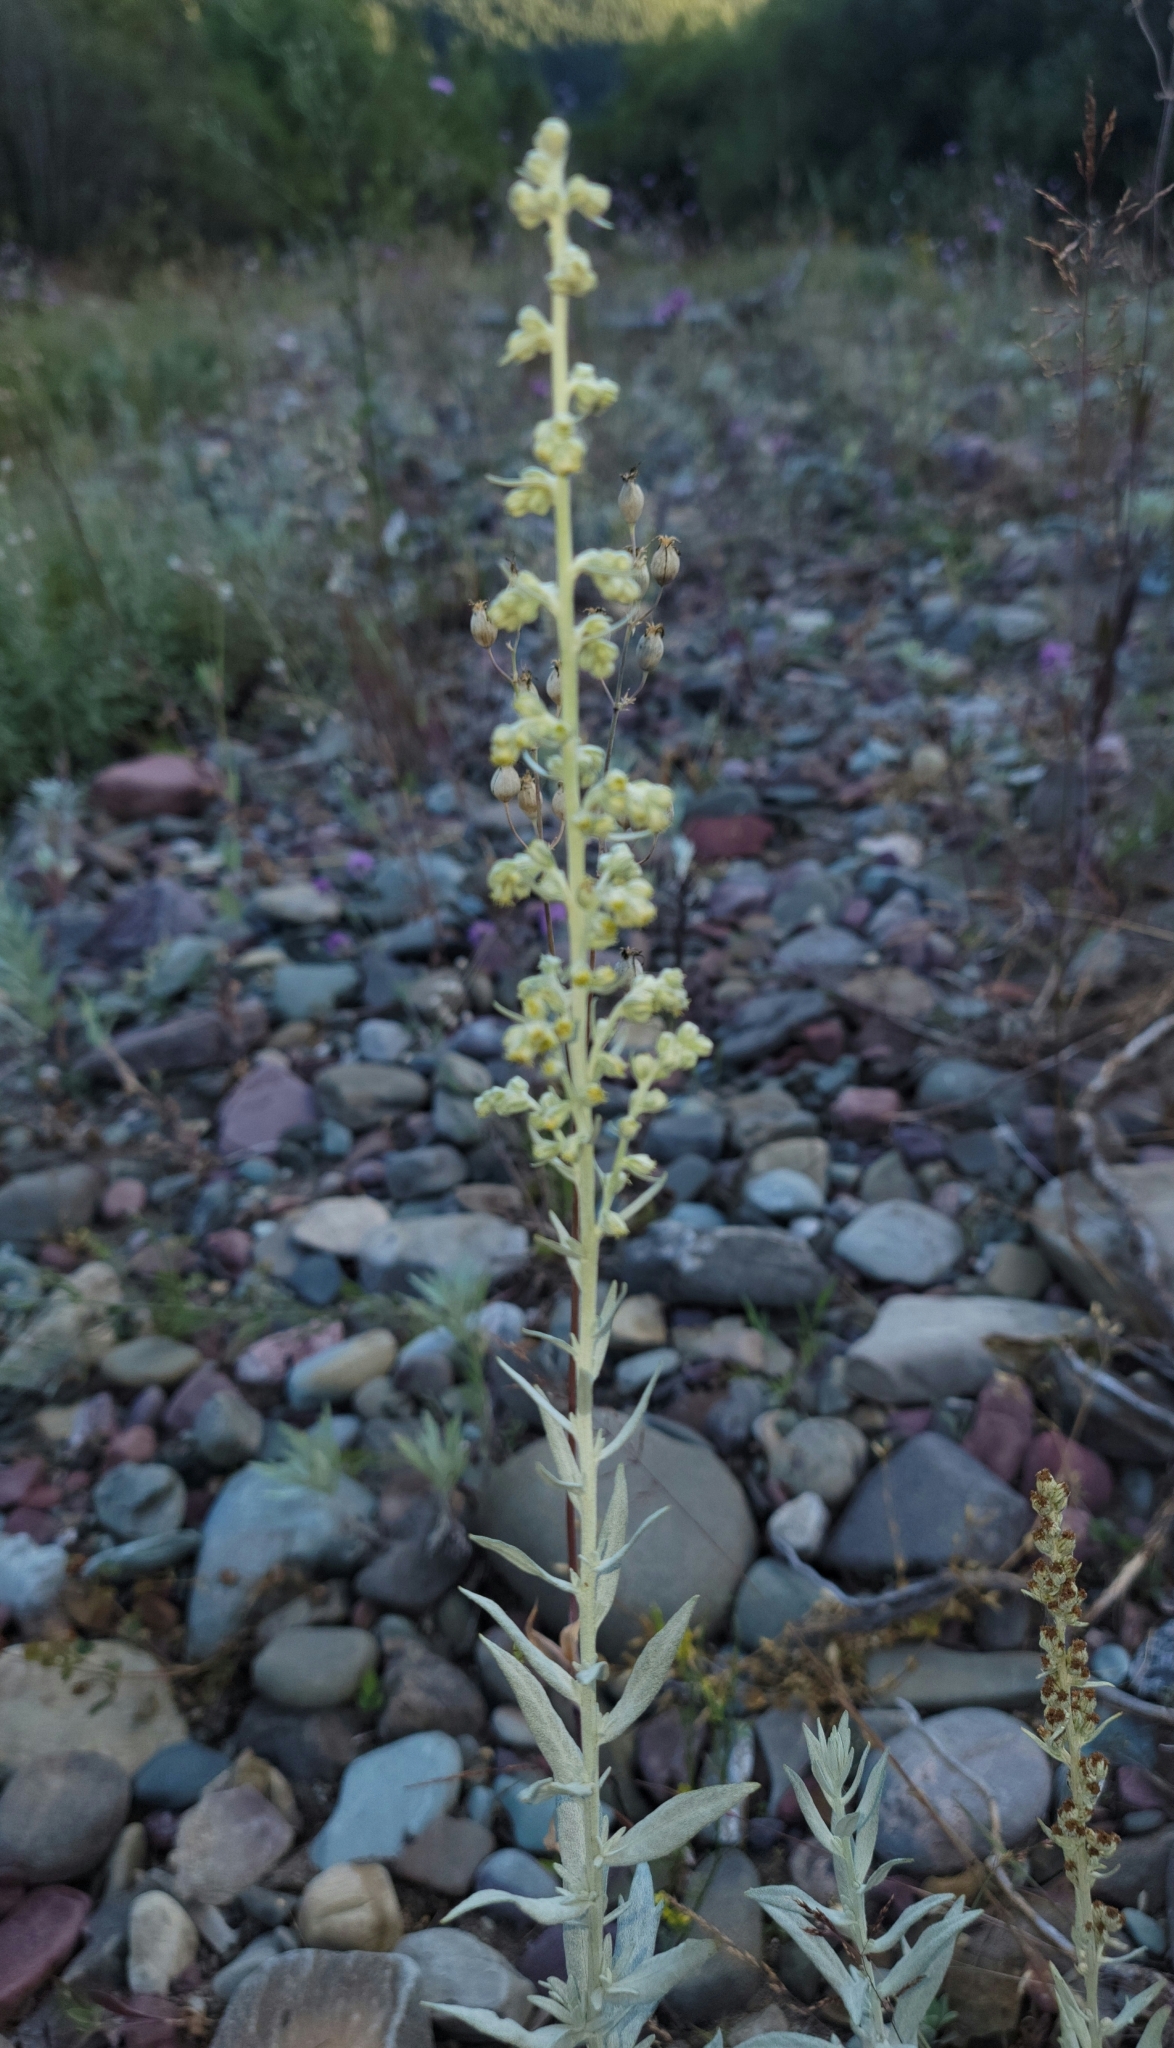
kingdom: Plantae
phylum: Tracheophyta
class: Magnoliopsida
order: Asterales
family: Asteraceae
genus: Artemisia
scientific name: Artemisia ludoviciana
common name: Western mugwort
